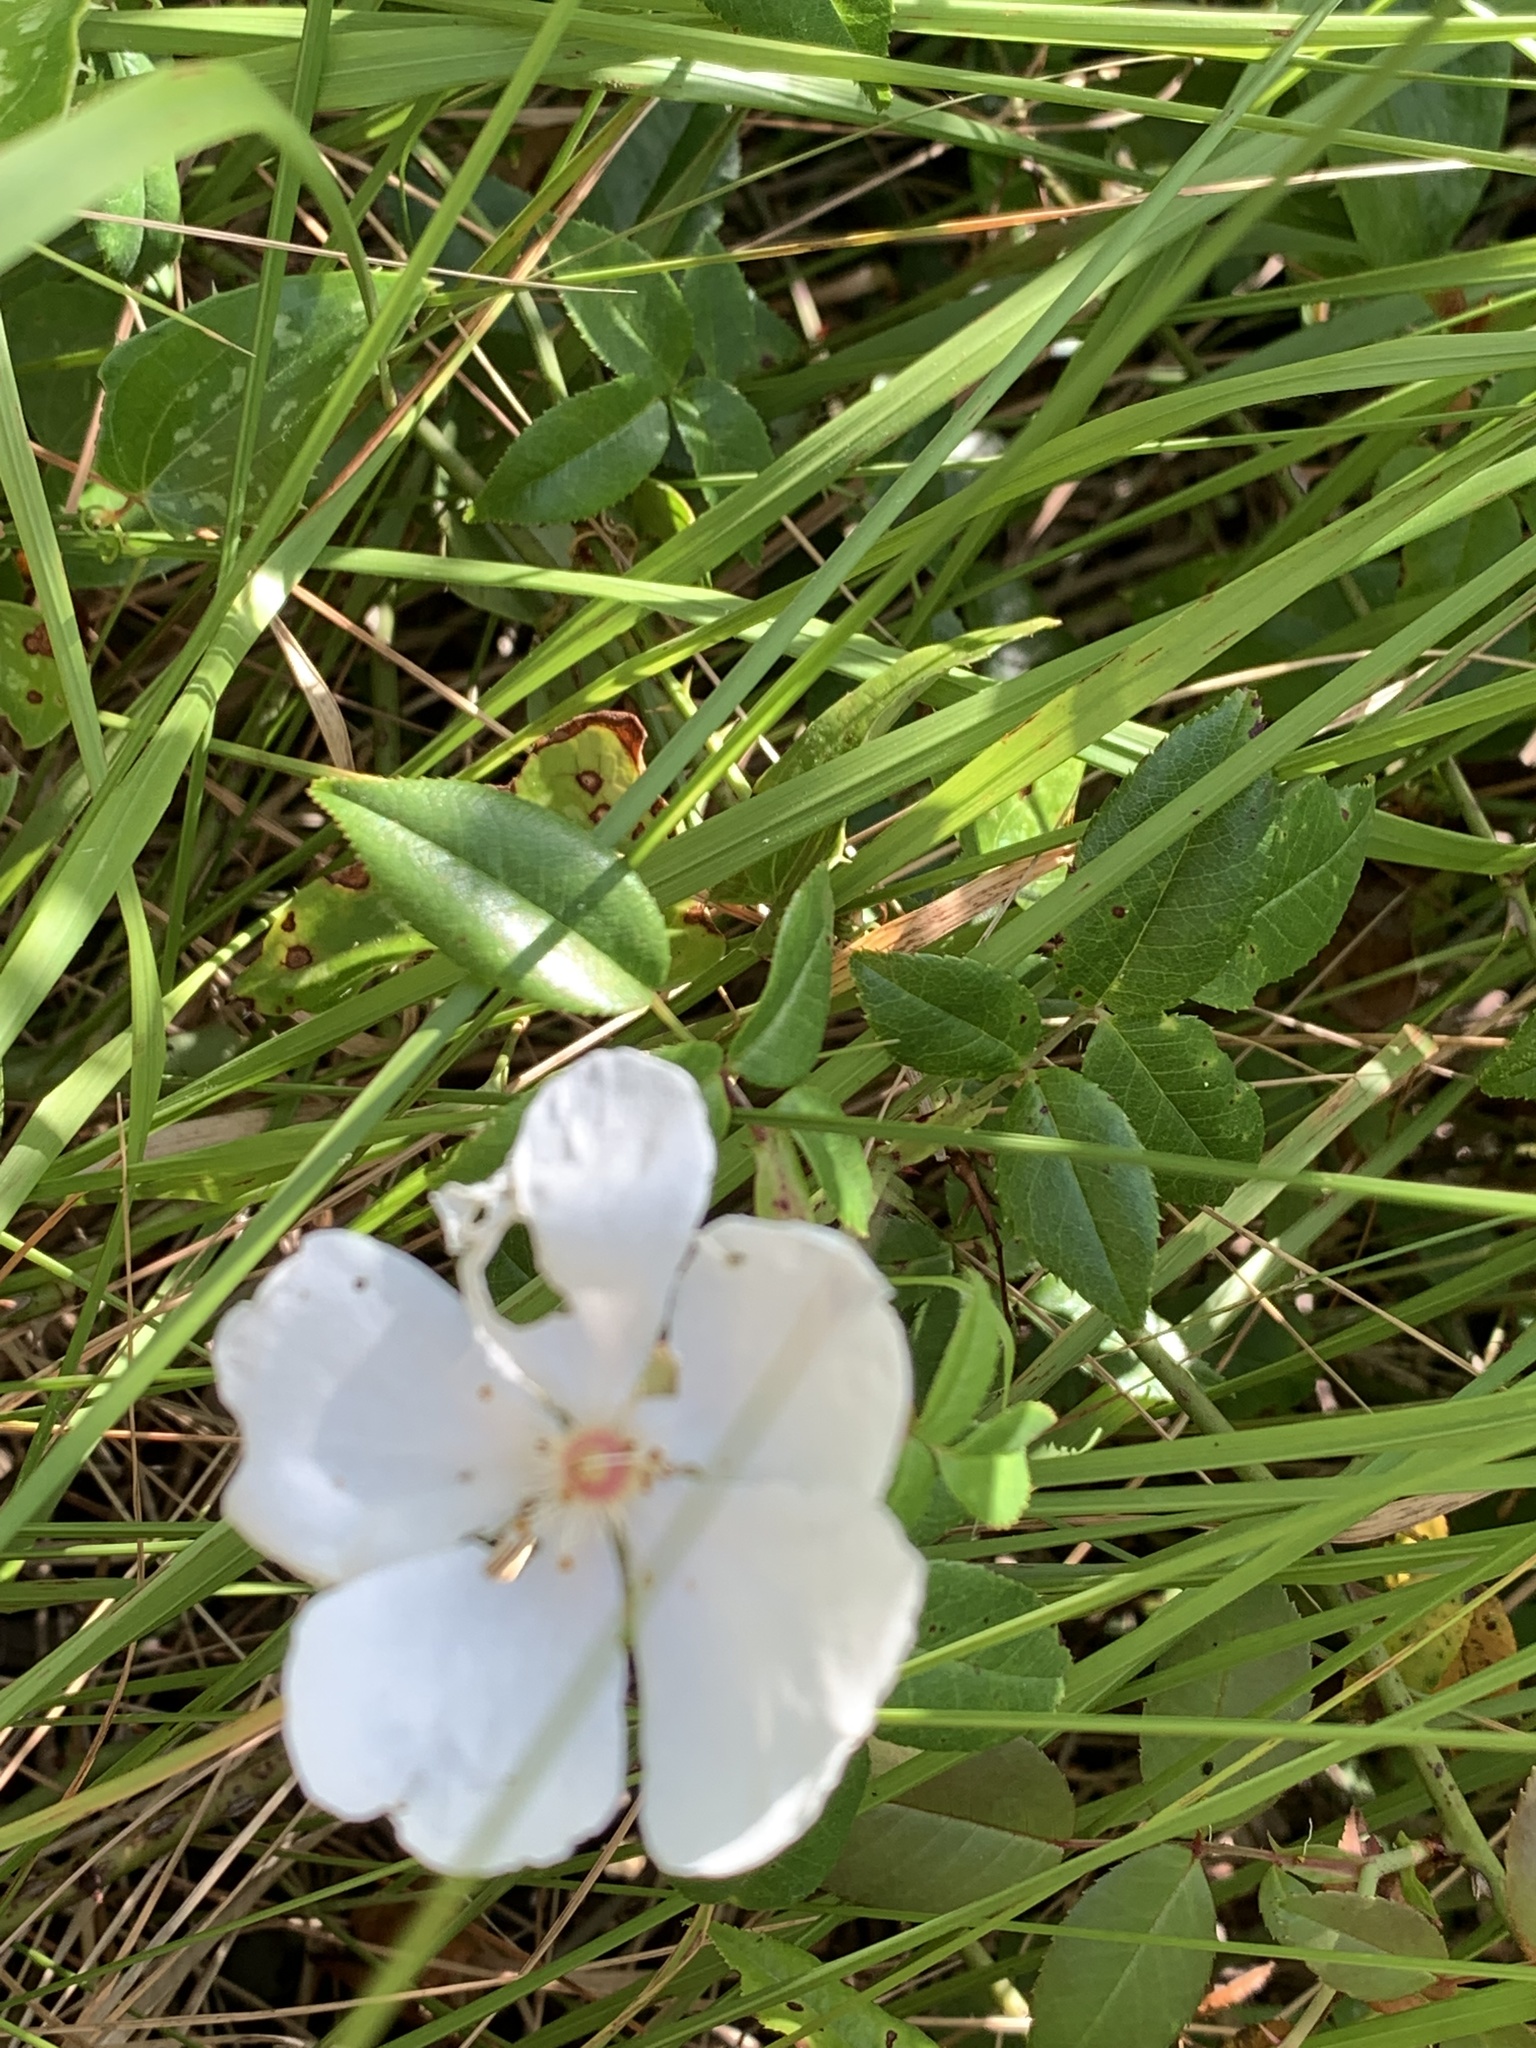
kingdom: Plantae
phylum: Tracheophyta
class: Magnoliopsida
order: Rosales
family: Rosaceae
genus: Rosa
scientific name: Rosa sempervirens
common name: Evergreen rose
